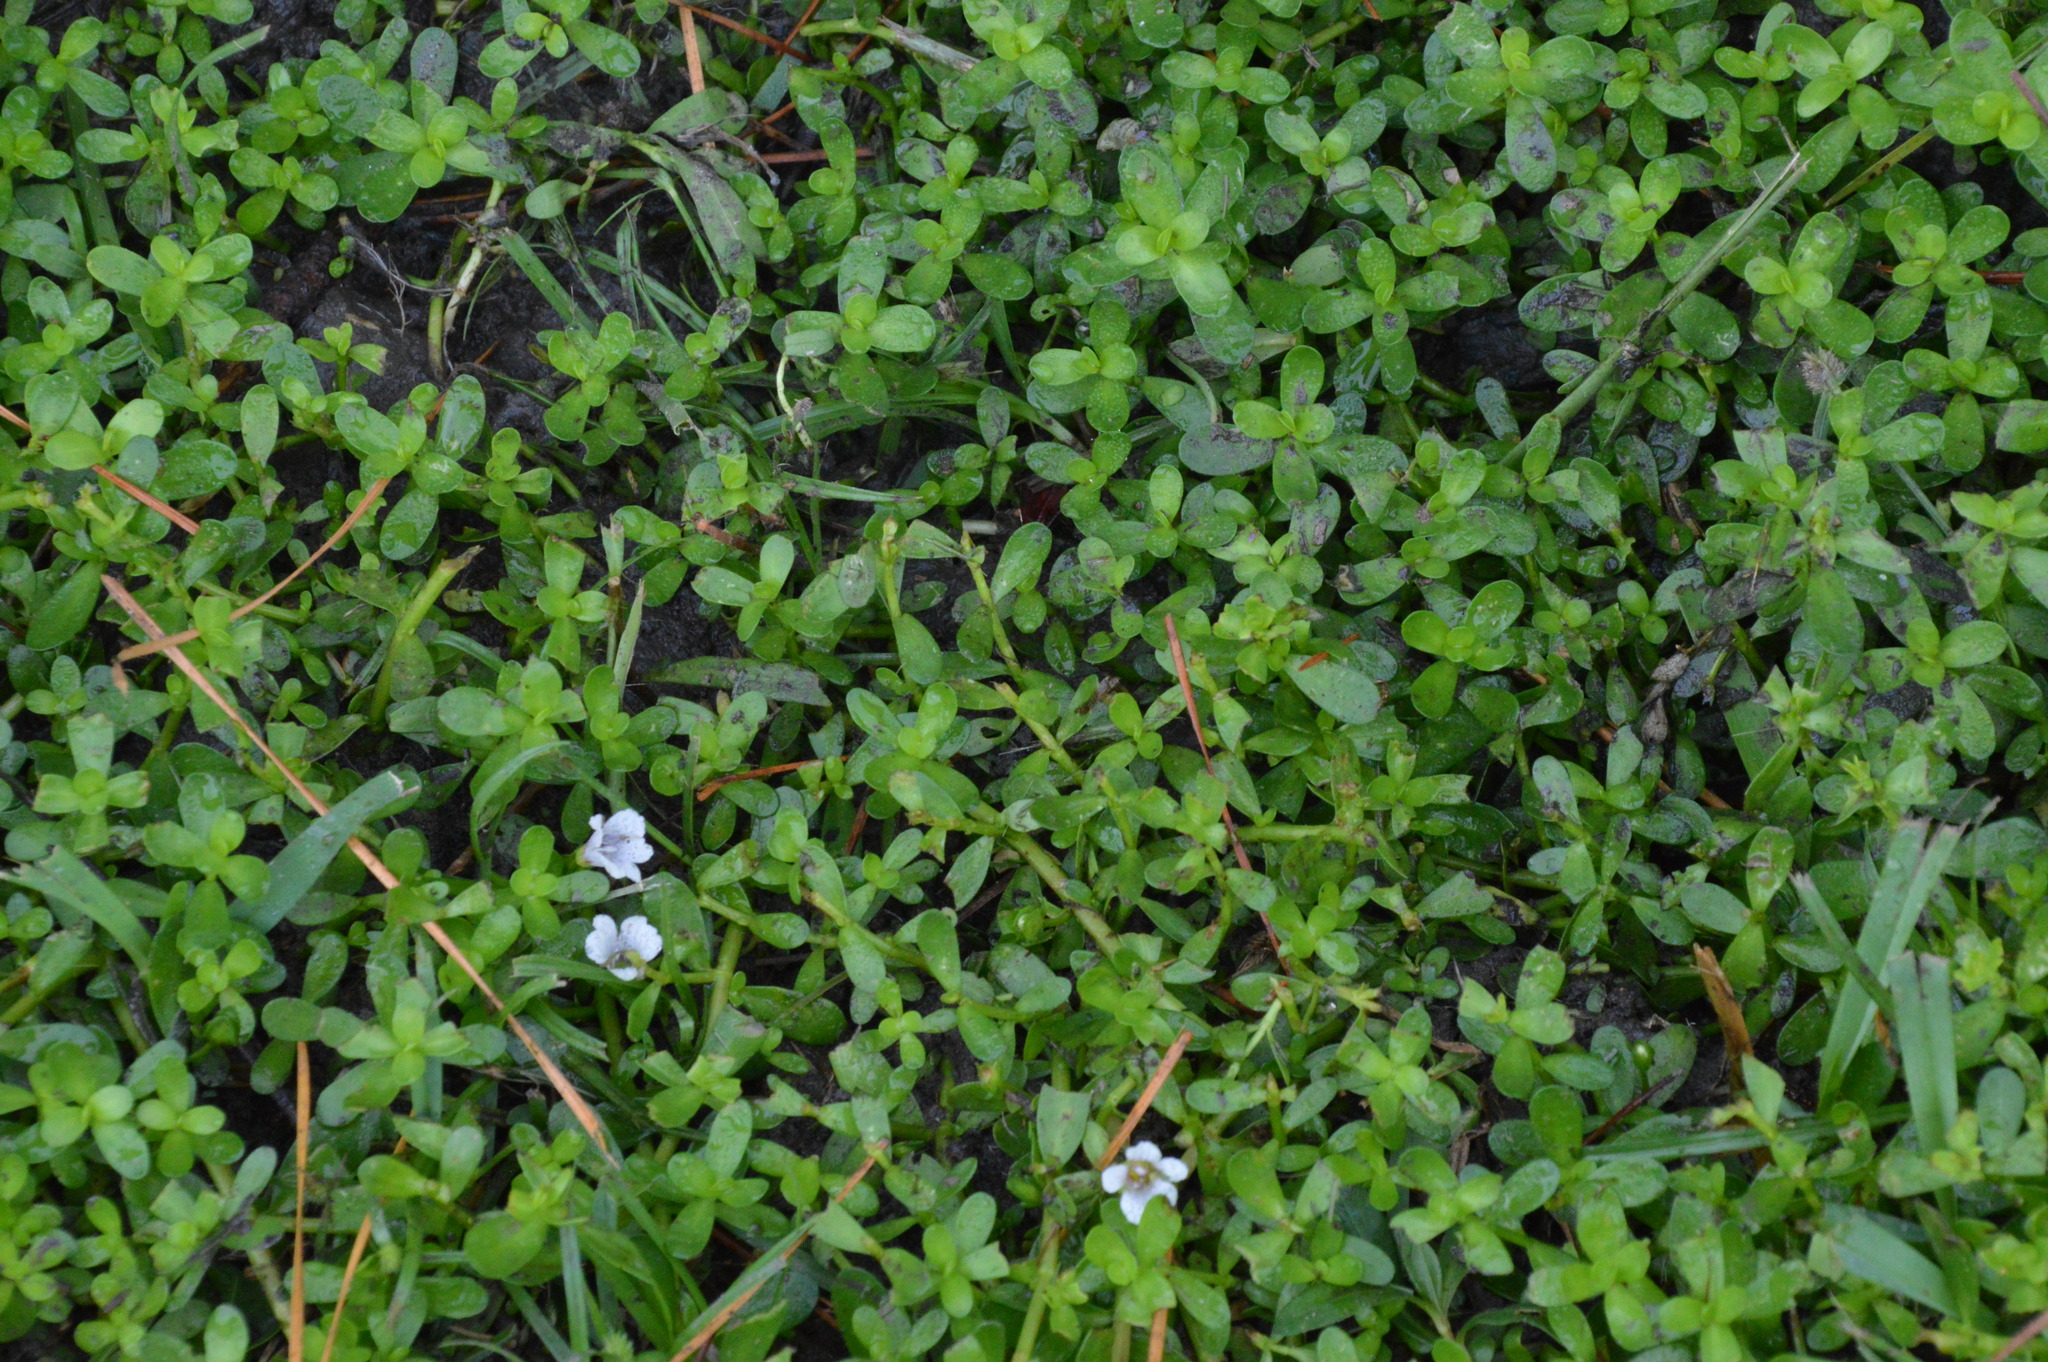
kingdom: Plantae
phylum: Tracheophyta
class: Magnoliopsida
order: Lamiales
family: Plantaginaceae
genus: Bacopa
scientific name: Bacopa monnieri
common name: Indian-pennywort
